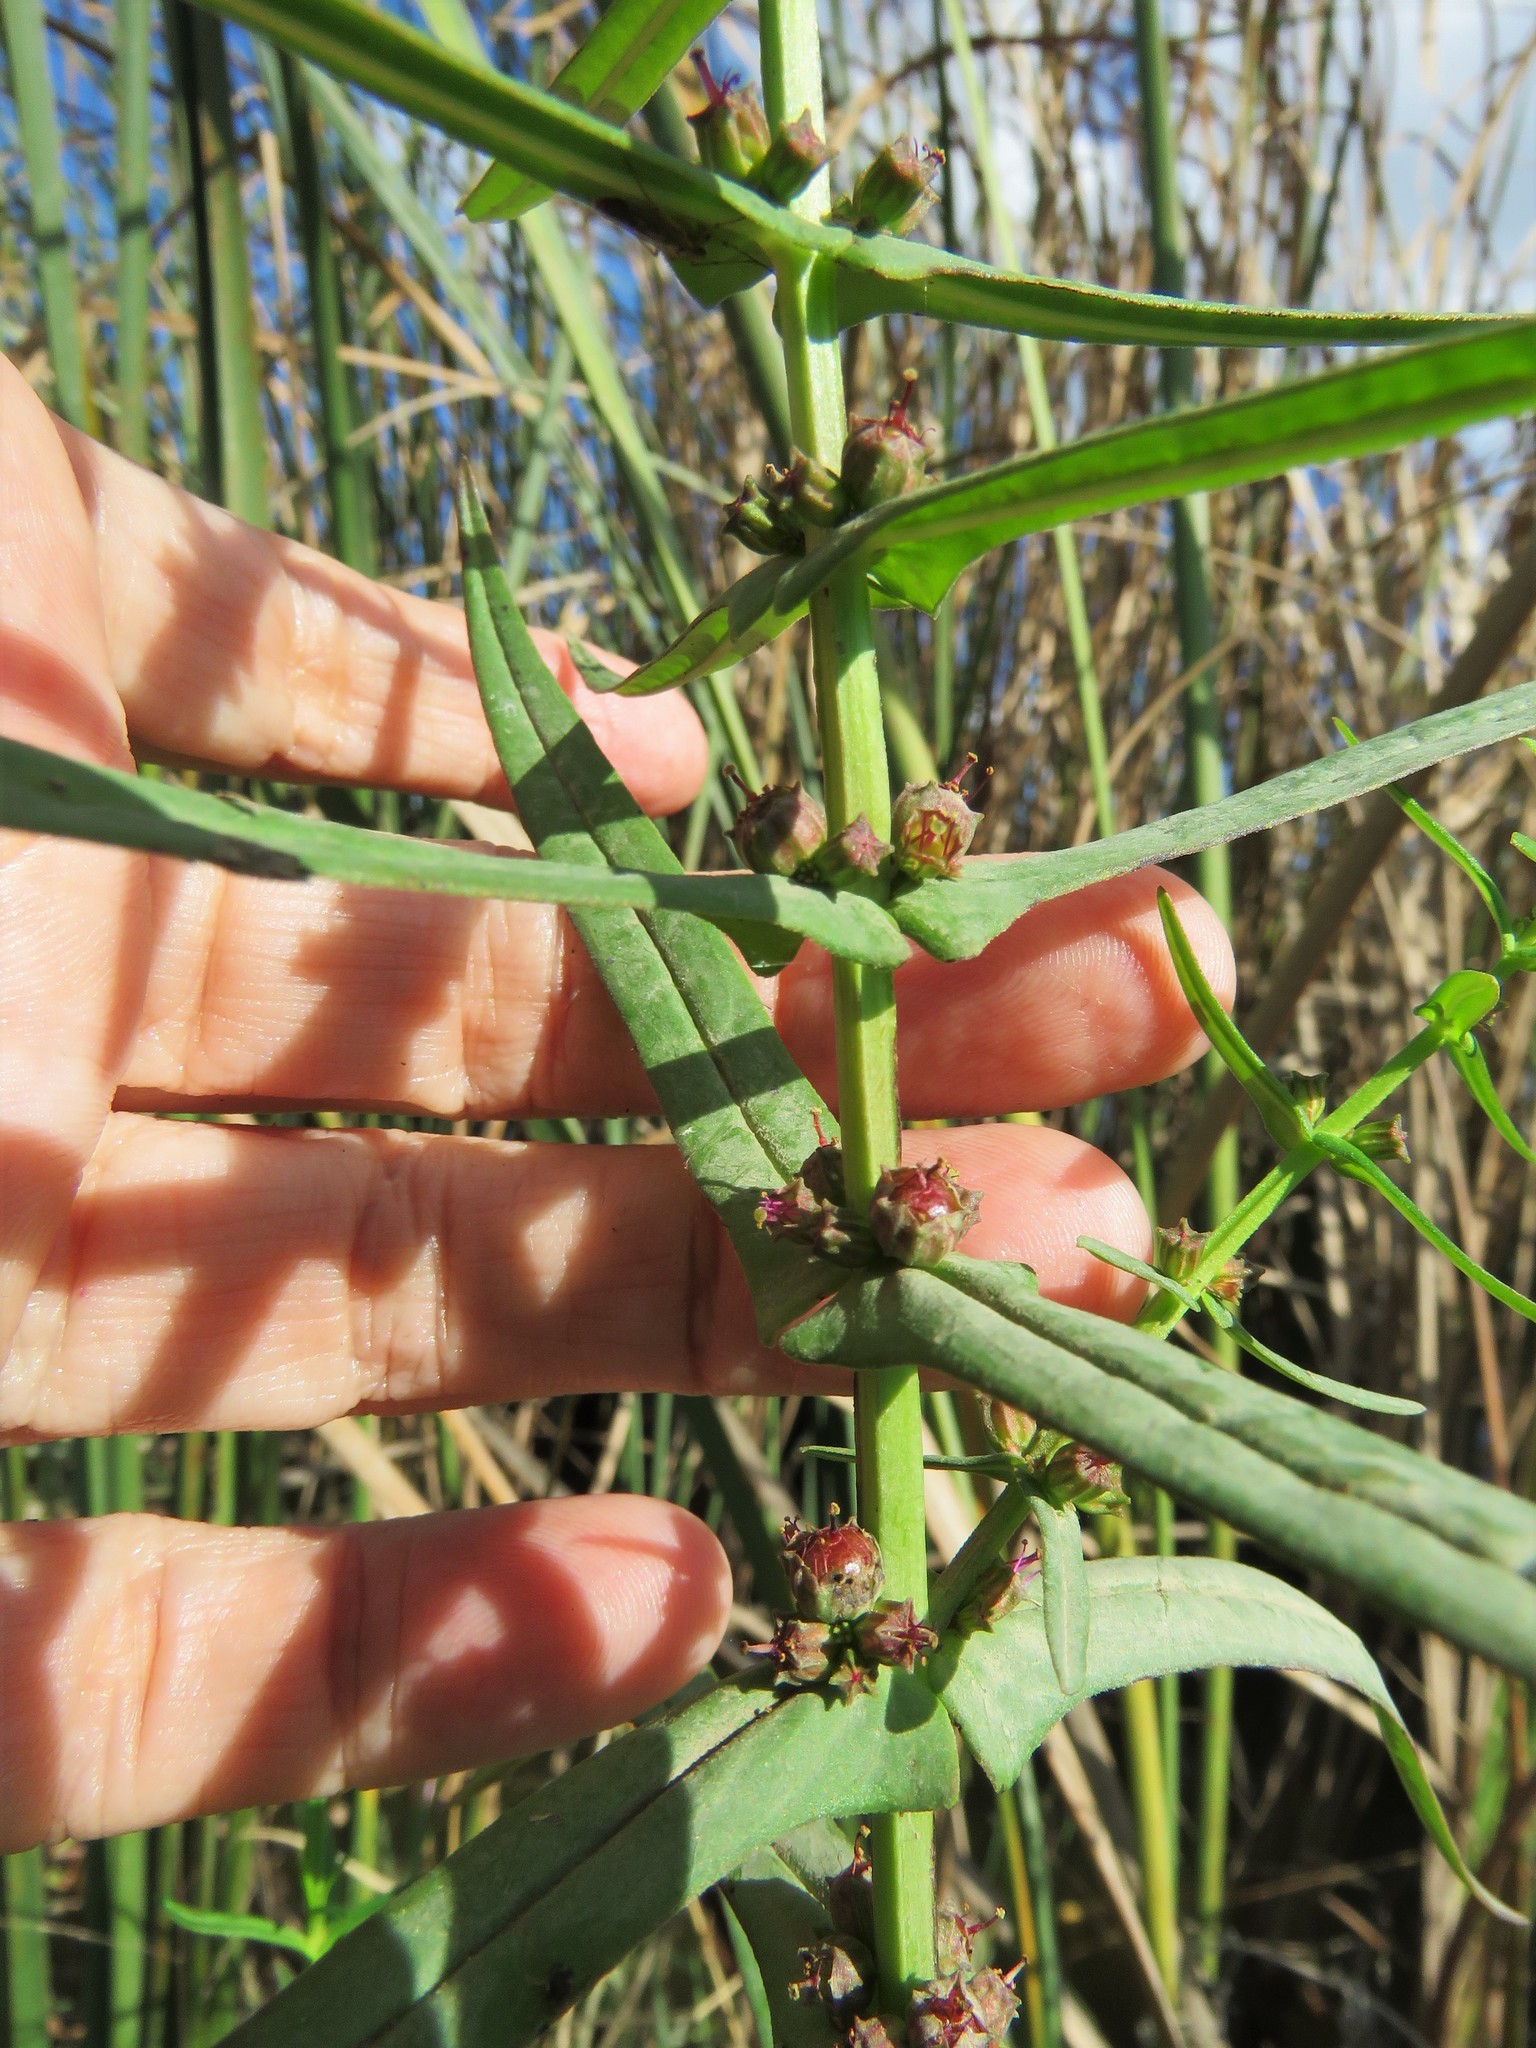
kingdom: Plantae
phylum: Tracheophyta
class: Magnoliopsida
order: Myrtales
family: Lythraceae
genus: Ammannia
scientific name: Ammannia coccinea
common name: Valley redstem
